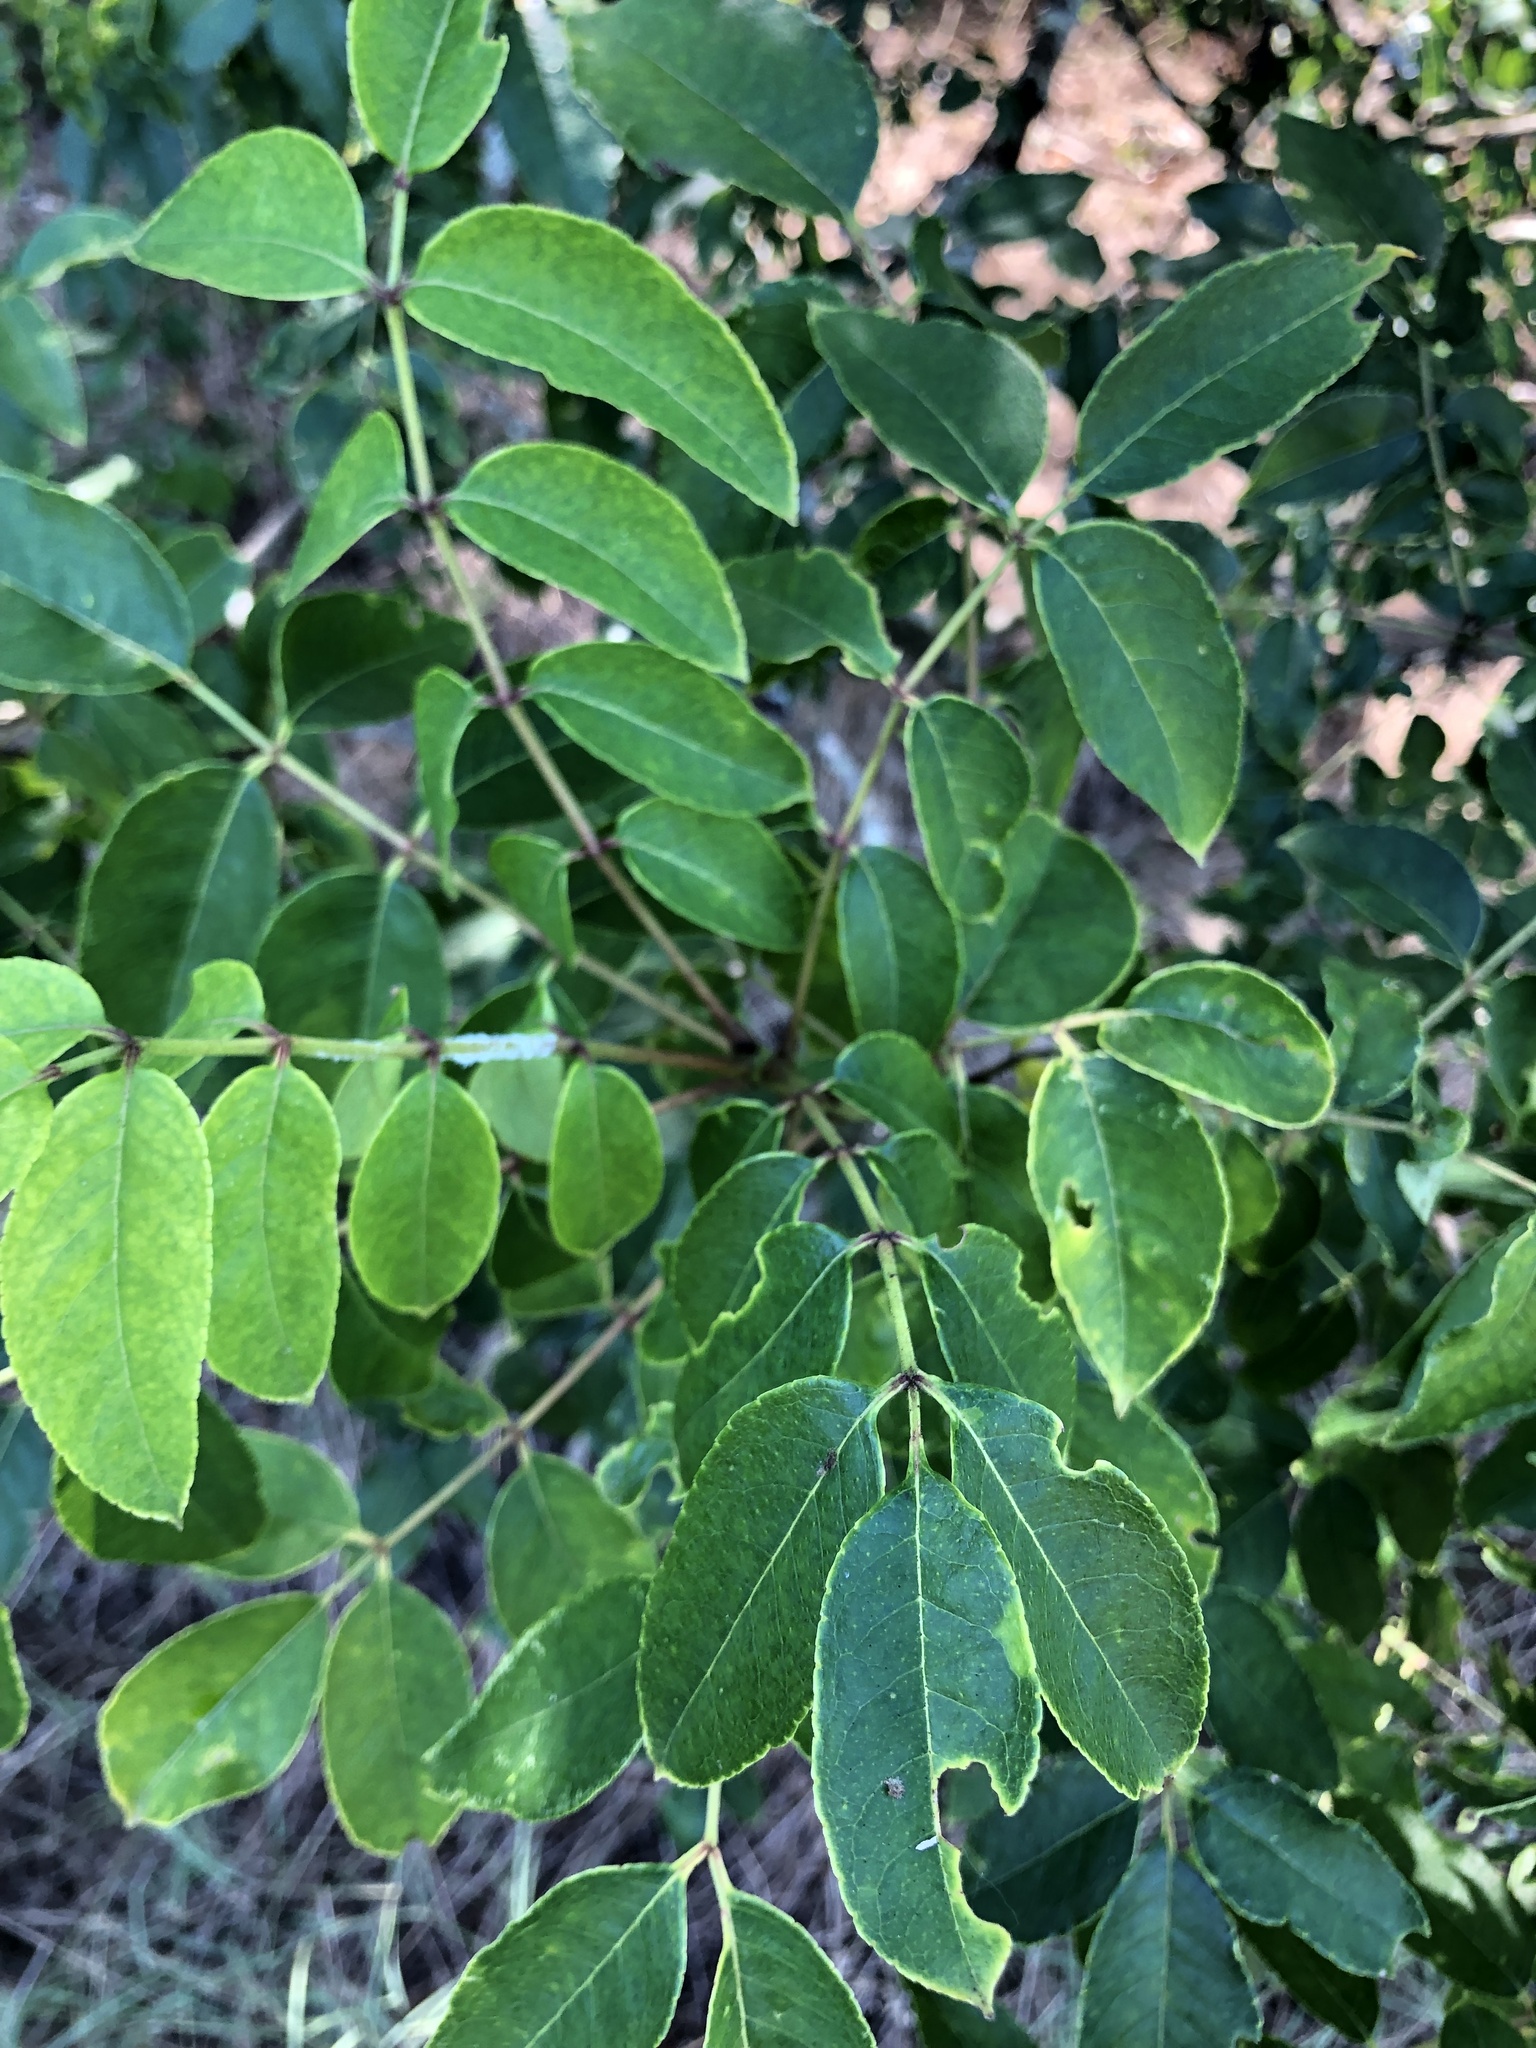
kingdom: Plantae
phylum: Tracheophyta
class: Magnoliopsida
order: Sapindales
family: Rutaceae
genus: Zanthoxylum
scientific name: Zanthoxylum clava-herculis
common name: Hercules'-club
